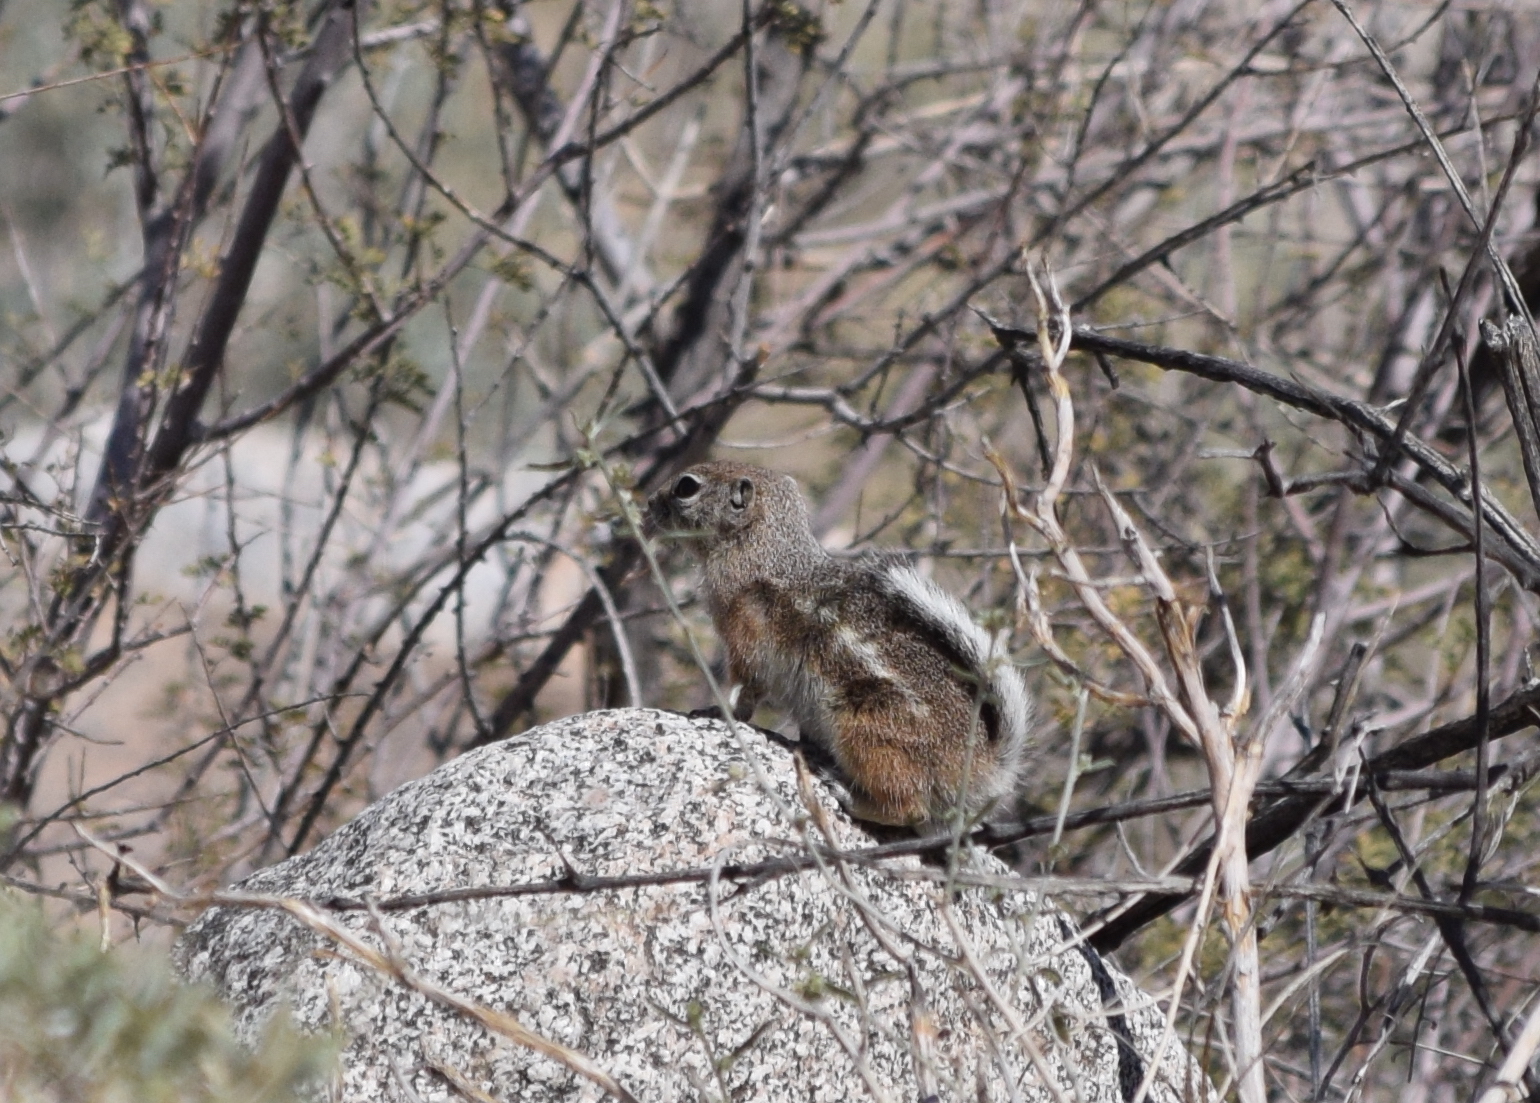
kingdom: Animalia
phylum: Chordata
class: Mammalia
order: Rodentia
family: Sciuridae
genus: Ammospermophilus
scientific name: Ammospermophilus leucurus
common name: White-tailed antelope squirrel
